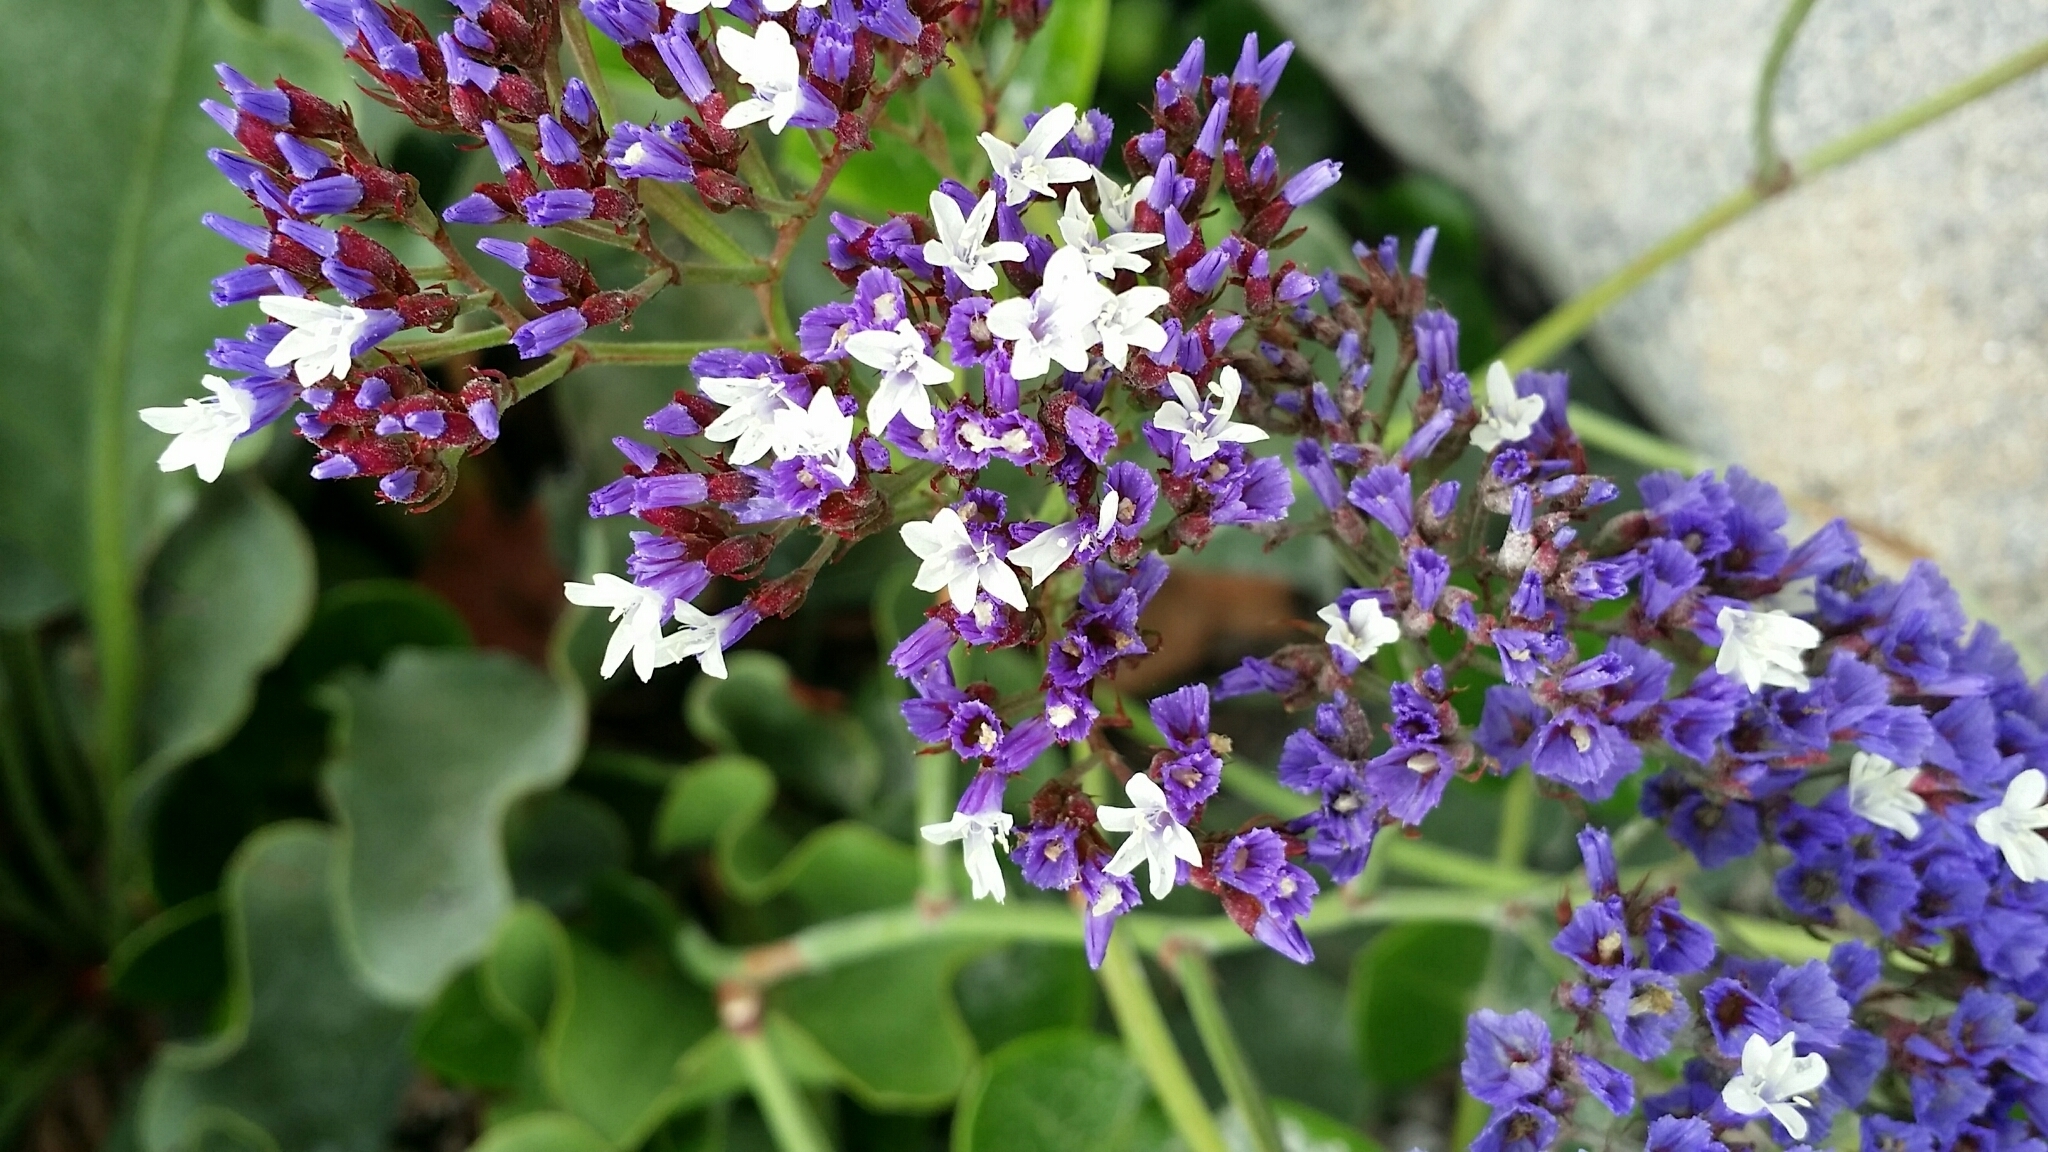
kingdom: Plantae
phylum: Tracheophyta
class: Magnoliopsida
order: Caryophyllales
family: Plumbaginaceae
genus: Limonium
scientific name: Limonium perezii
